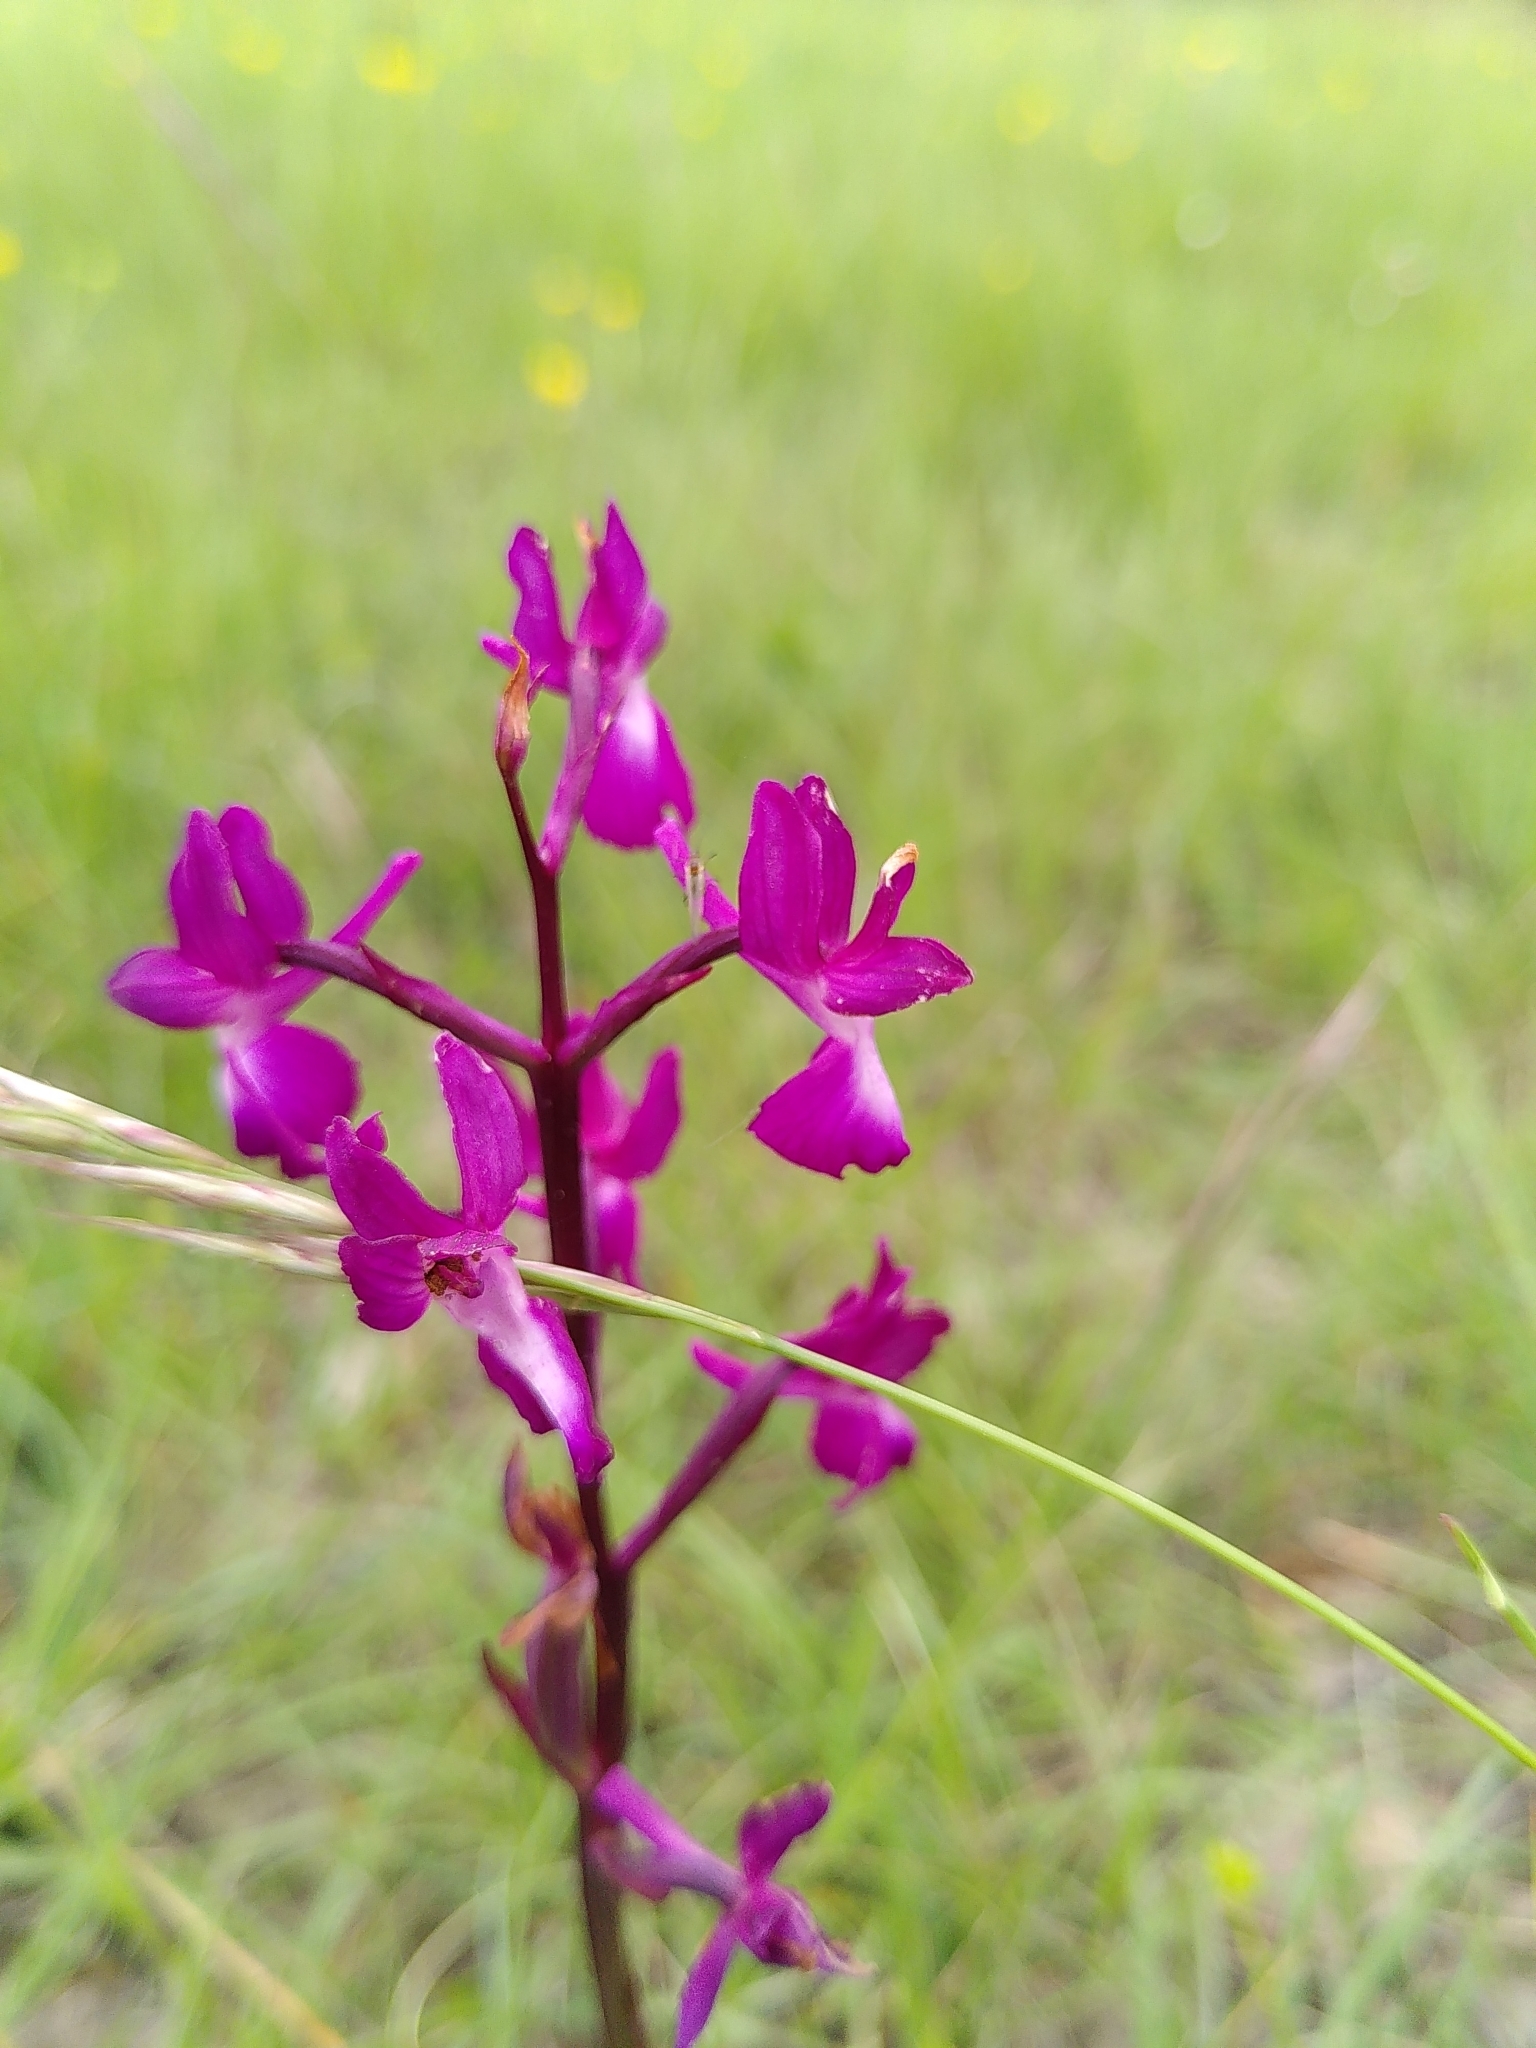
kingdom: Plantae
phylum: Tracheophyta
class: Liliopsida
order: Asparagales
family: Orchidaceae
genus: Anacamptis
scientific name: Anacamptis laxiflora
